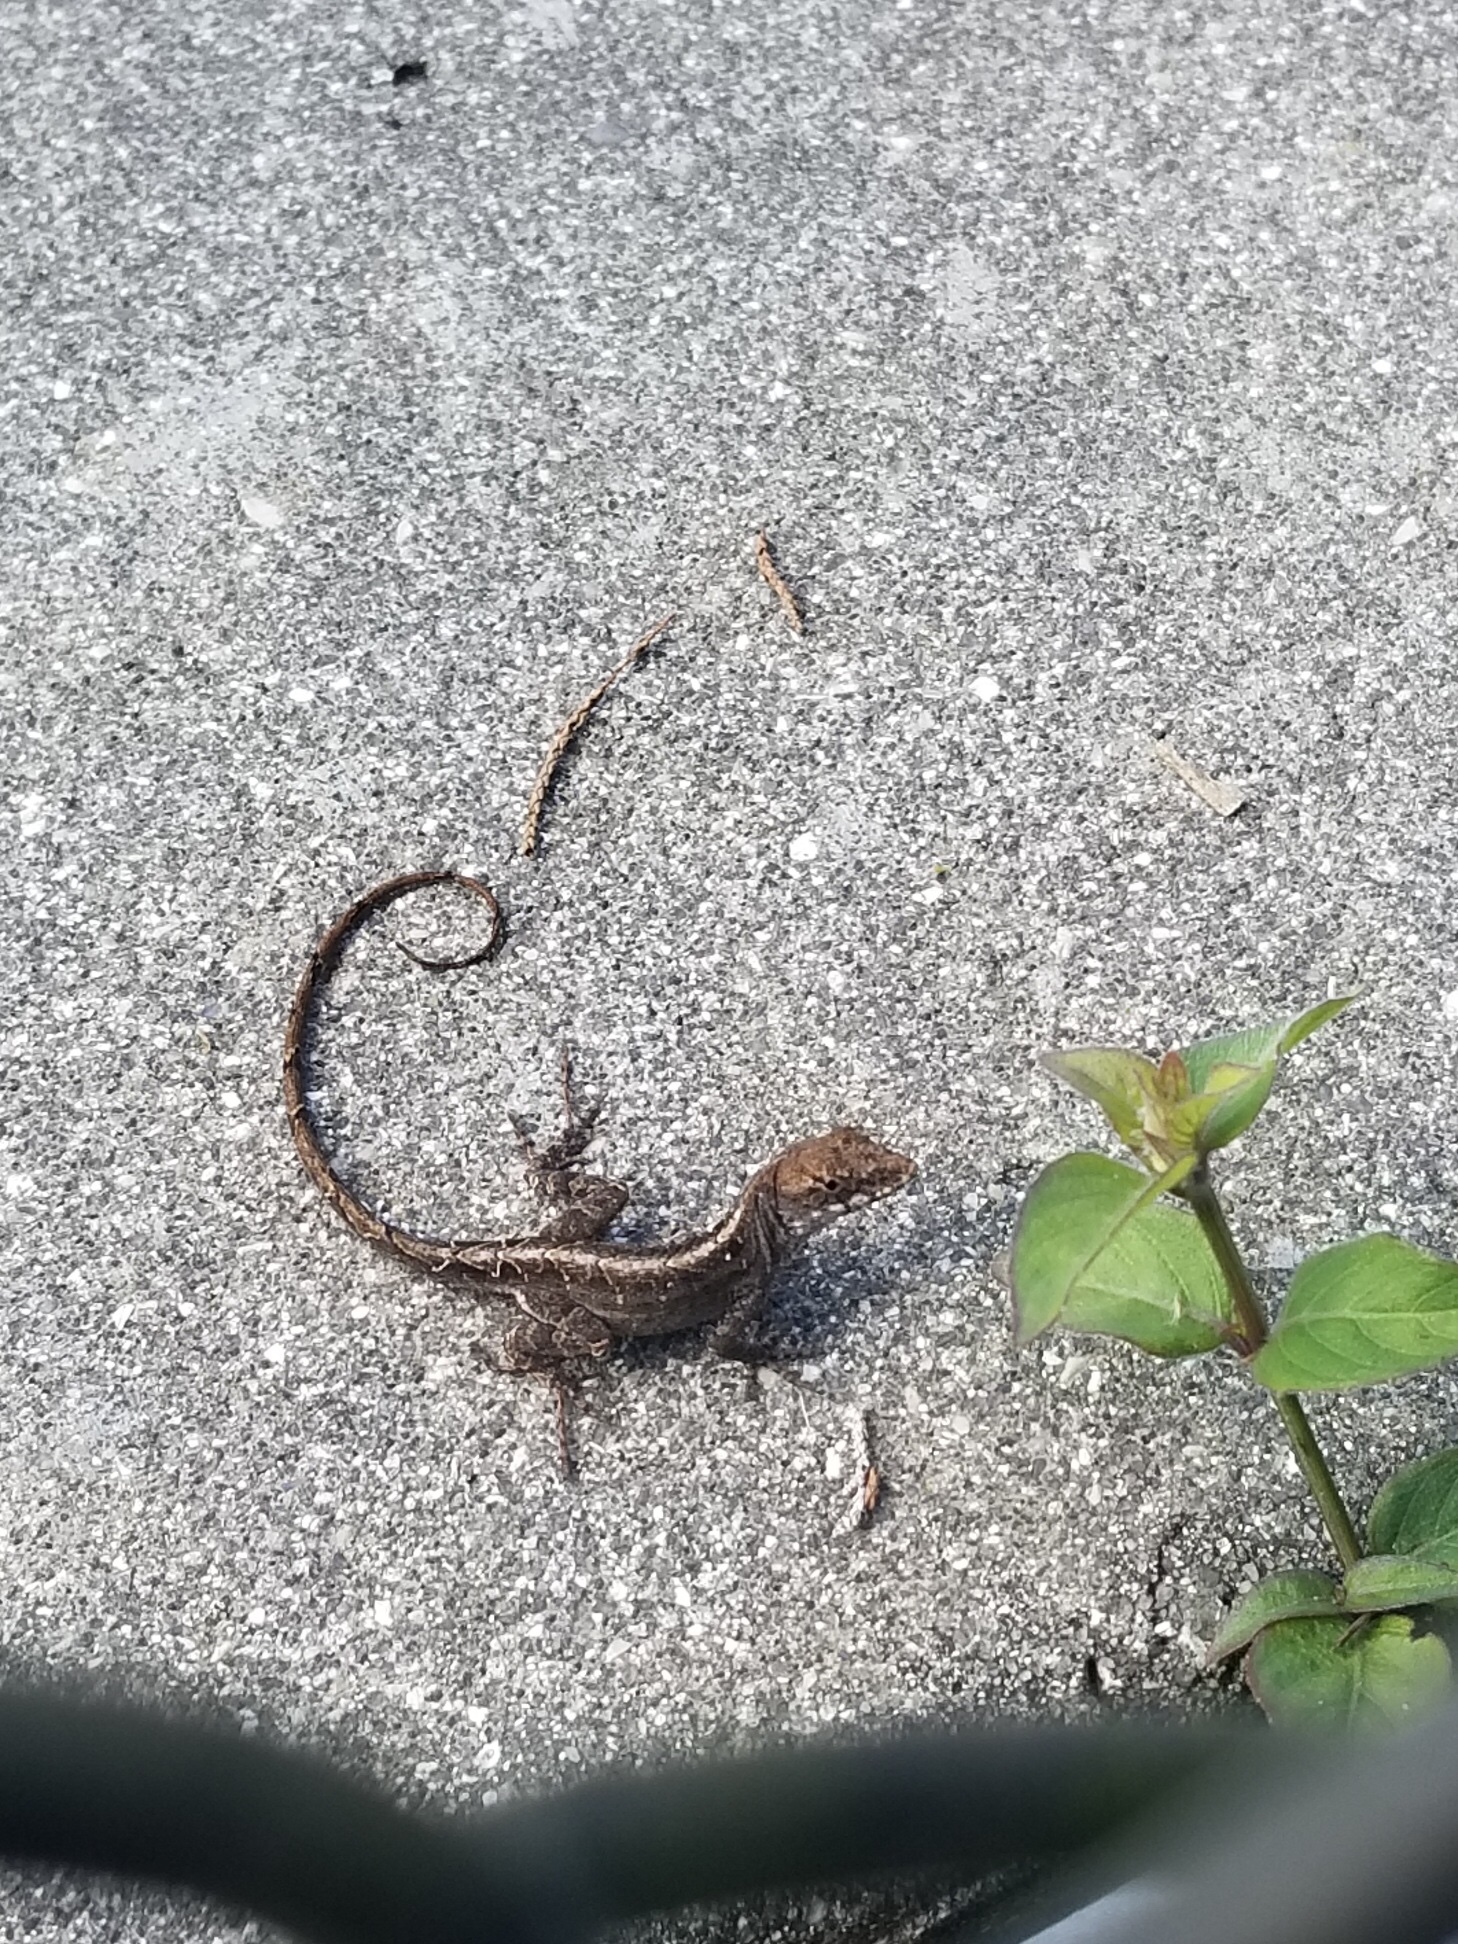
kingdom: Animalia
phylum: Chordata
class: Squamata
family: Dactyloidae
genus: Anolis
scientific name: Anolis sagrei
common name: Brown anole
